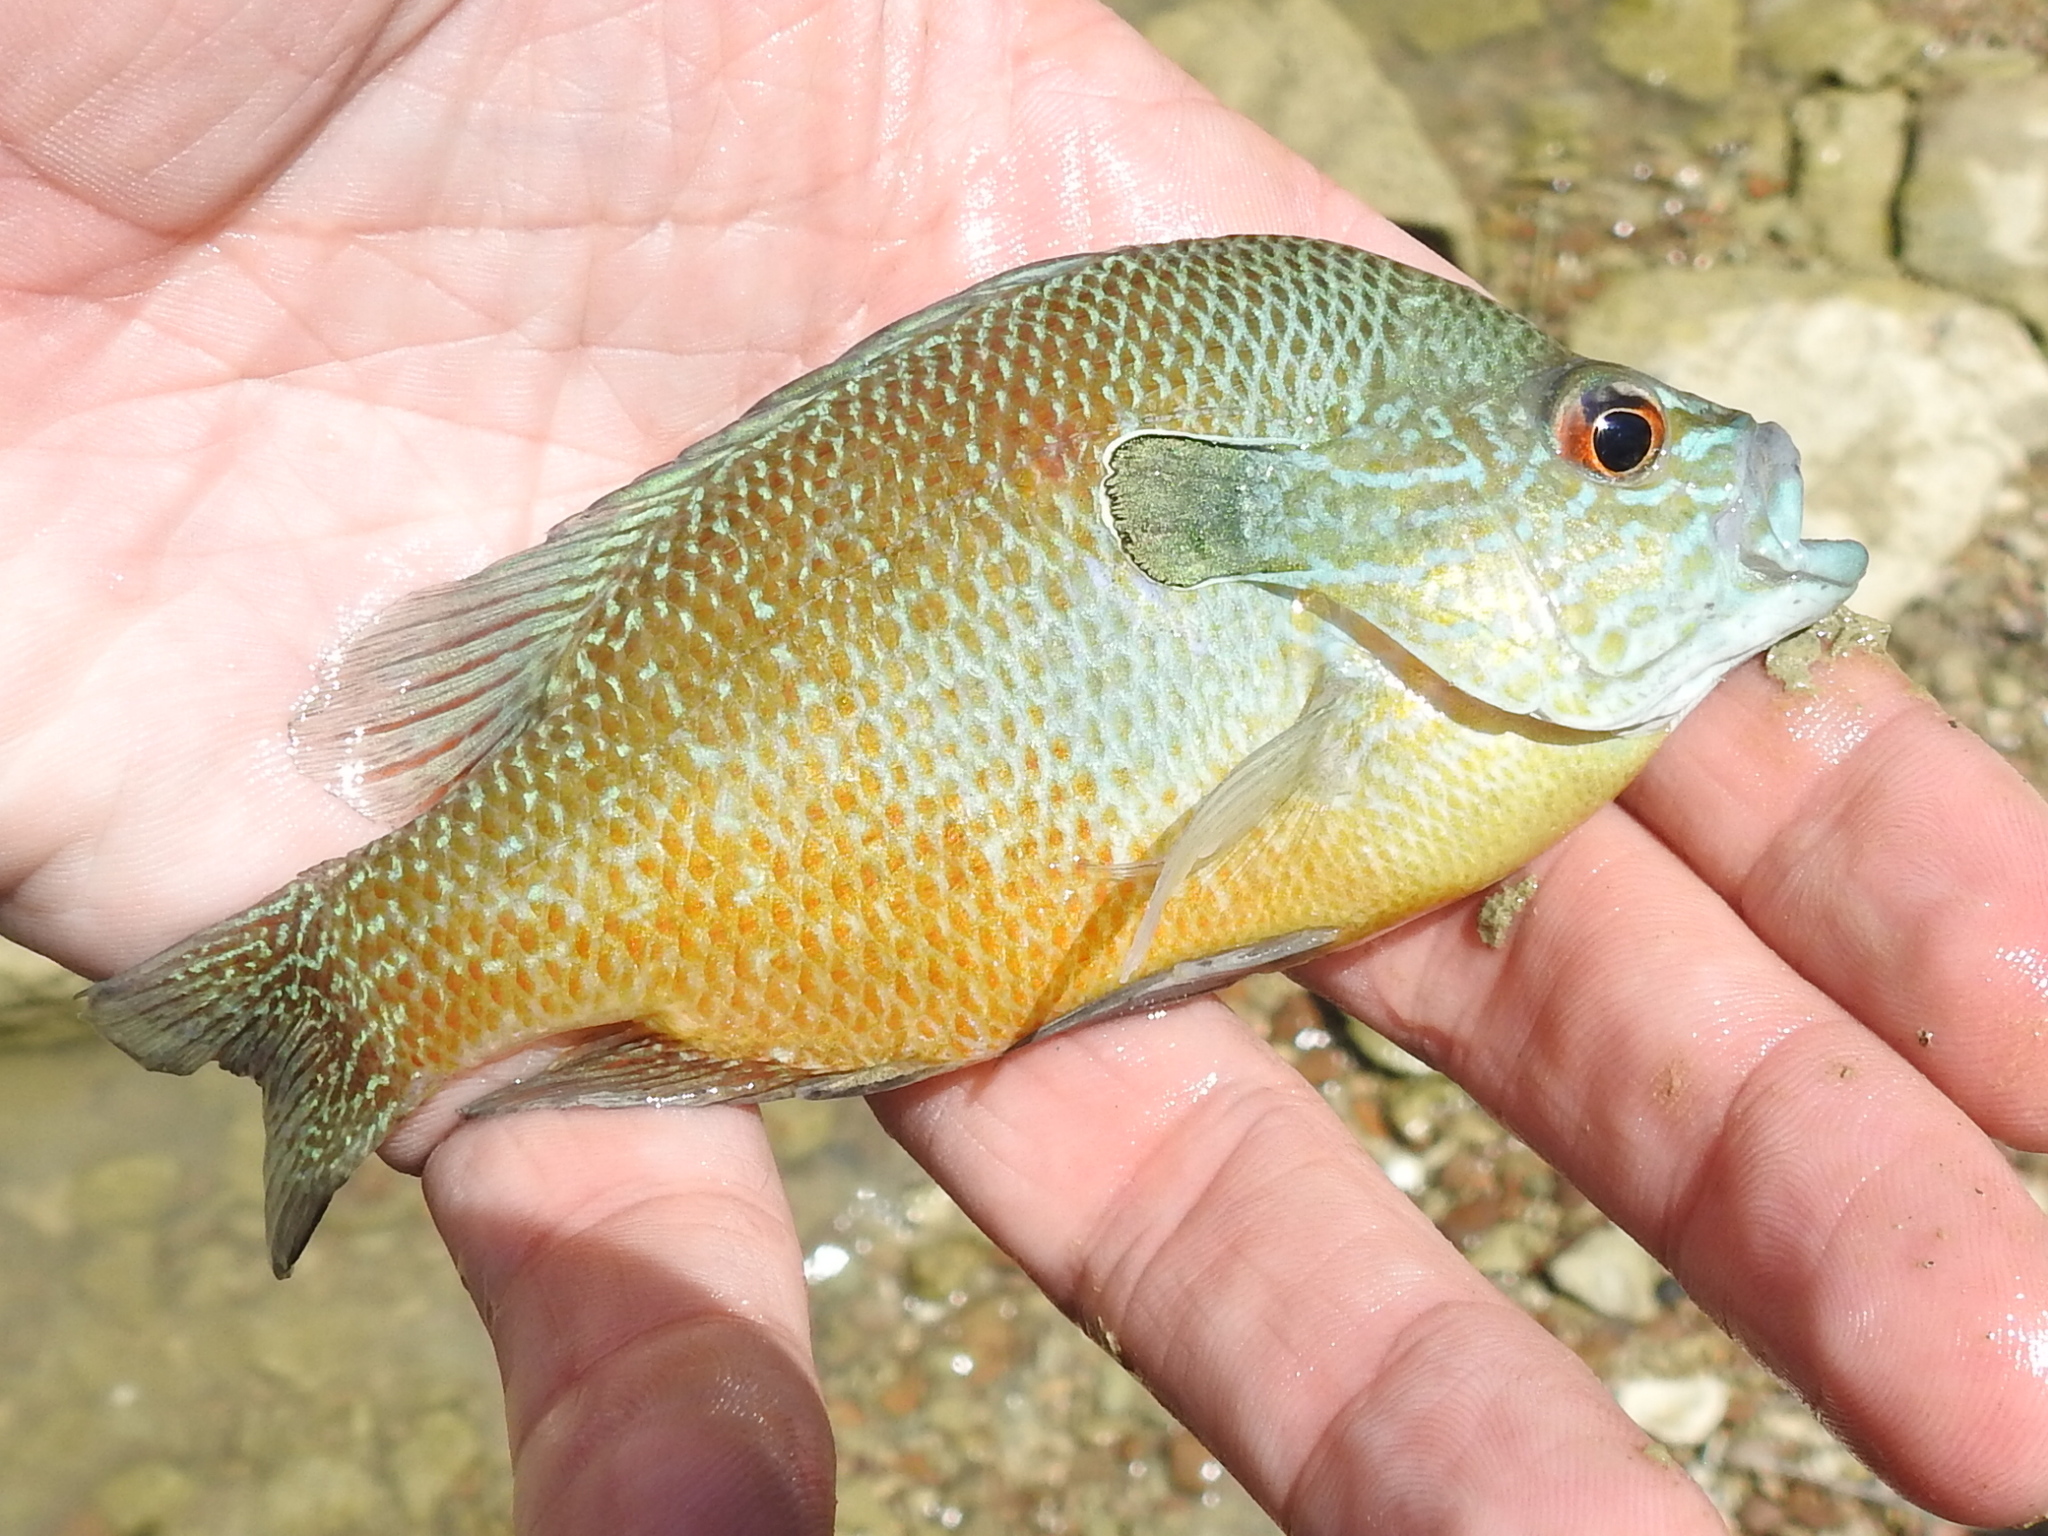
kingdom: Animalia
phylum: Chordata
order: Perciformes
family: Centrarchidae
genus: Lepomis
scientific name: Lepomis aquilensis
